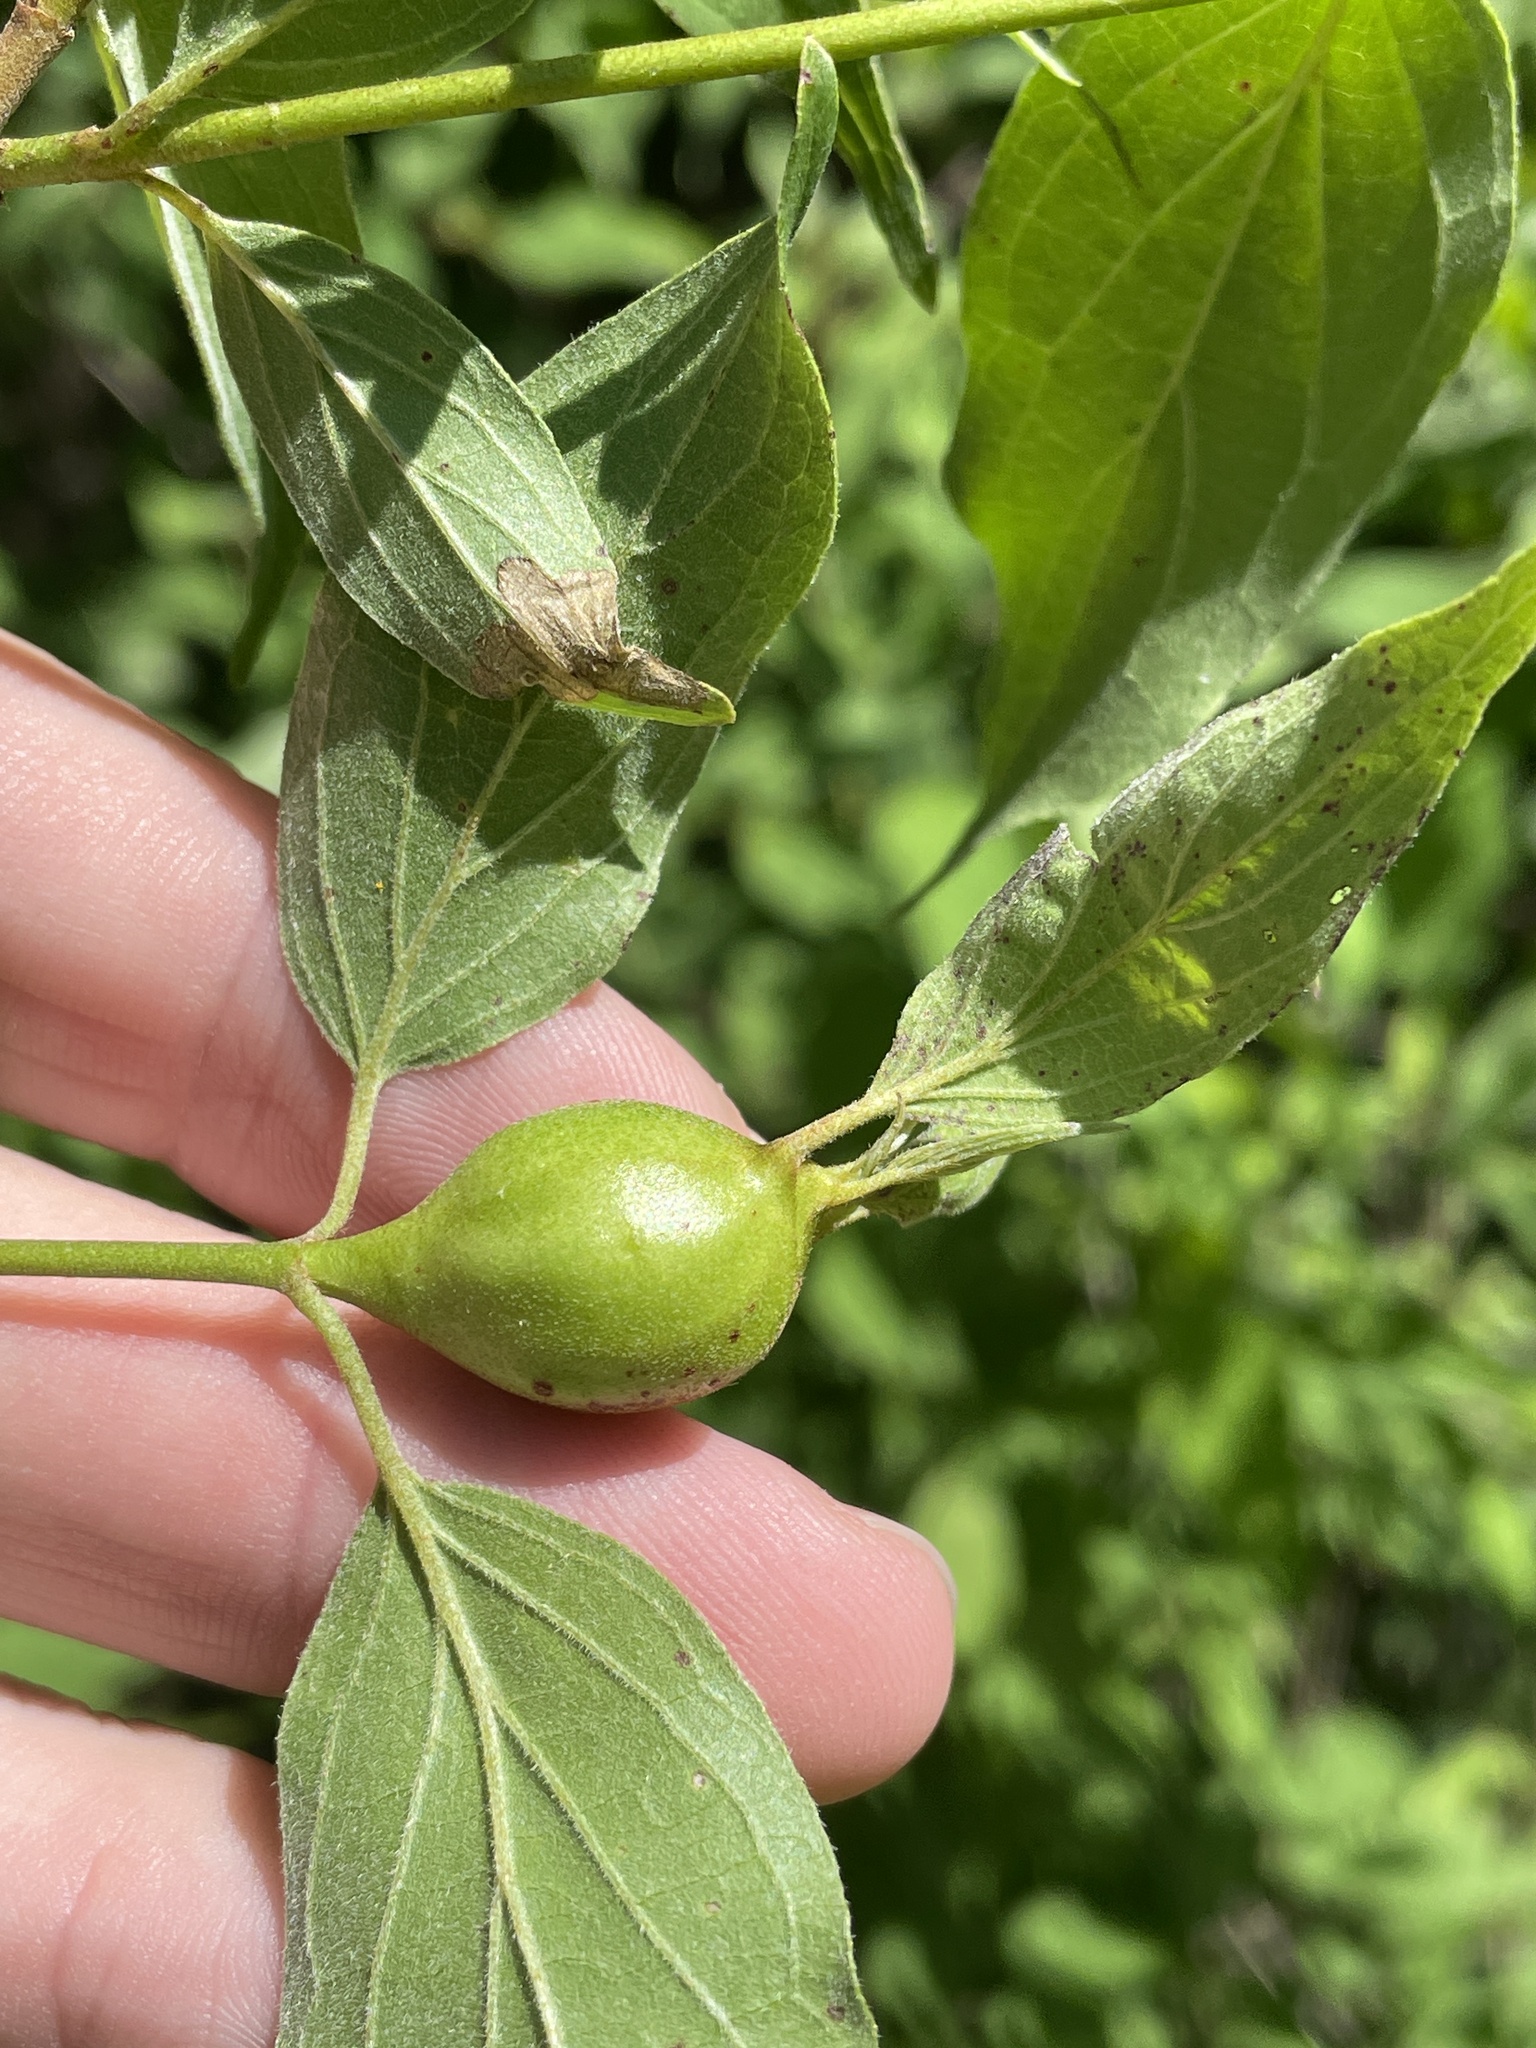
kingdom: Animalia
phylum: Arthropoda
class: Insecta
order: Diptera
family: Cecidomyiidae
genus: Resseliella
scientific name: Resseliella clavula
